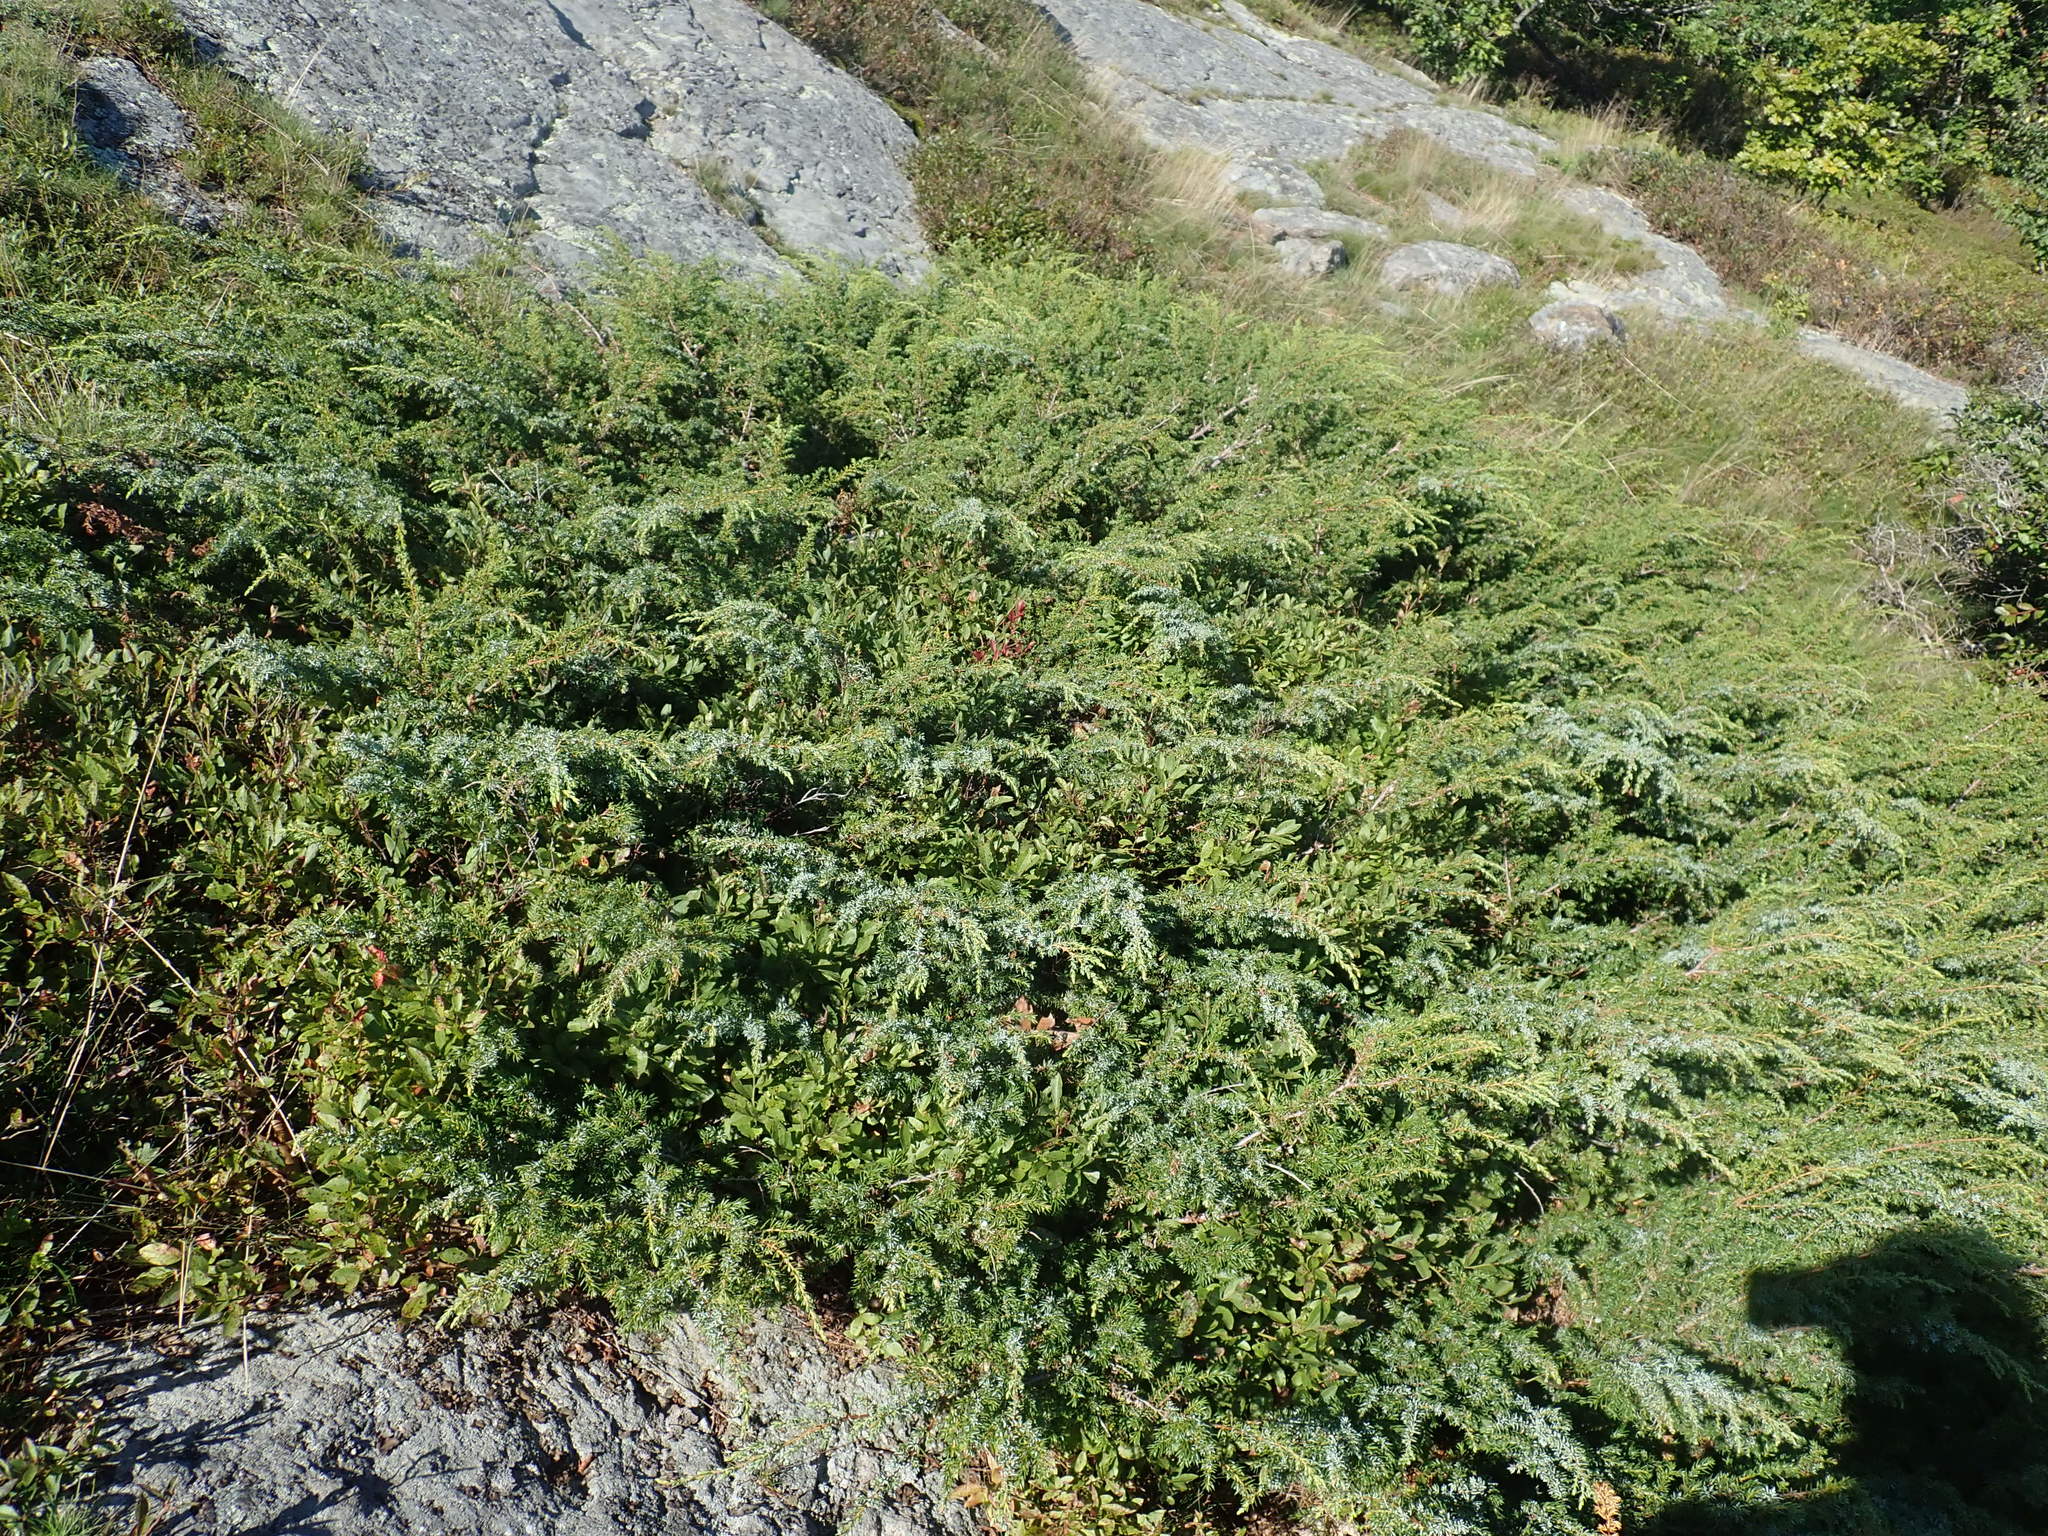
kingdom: Plantae
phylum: Tracheophyta
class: Pinopsida
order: Pinales
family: Cupressaceae
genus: Juniperus
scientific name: Juniperus communis
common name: Common juniper
